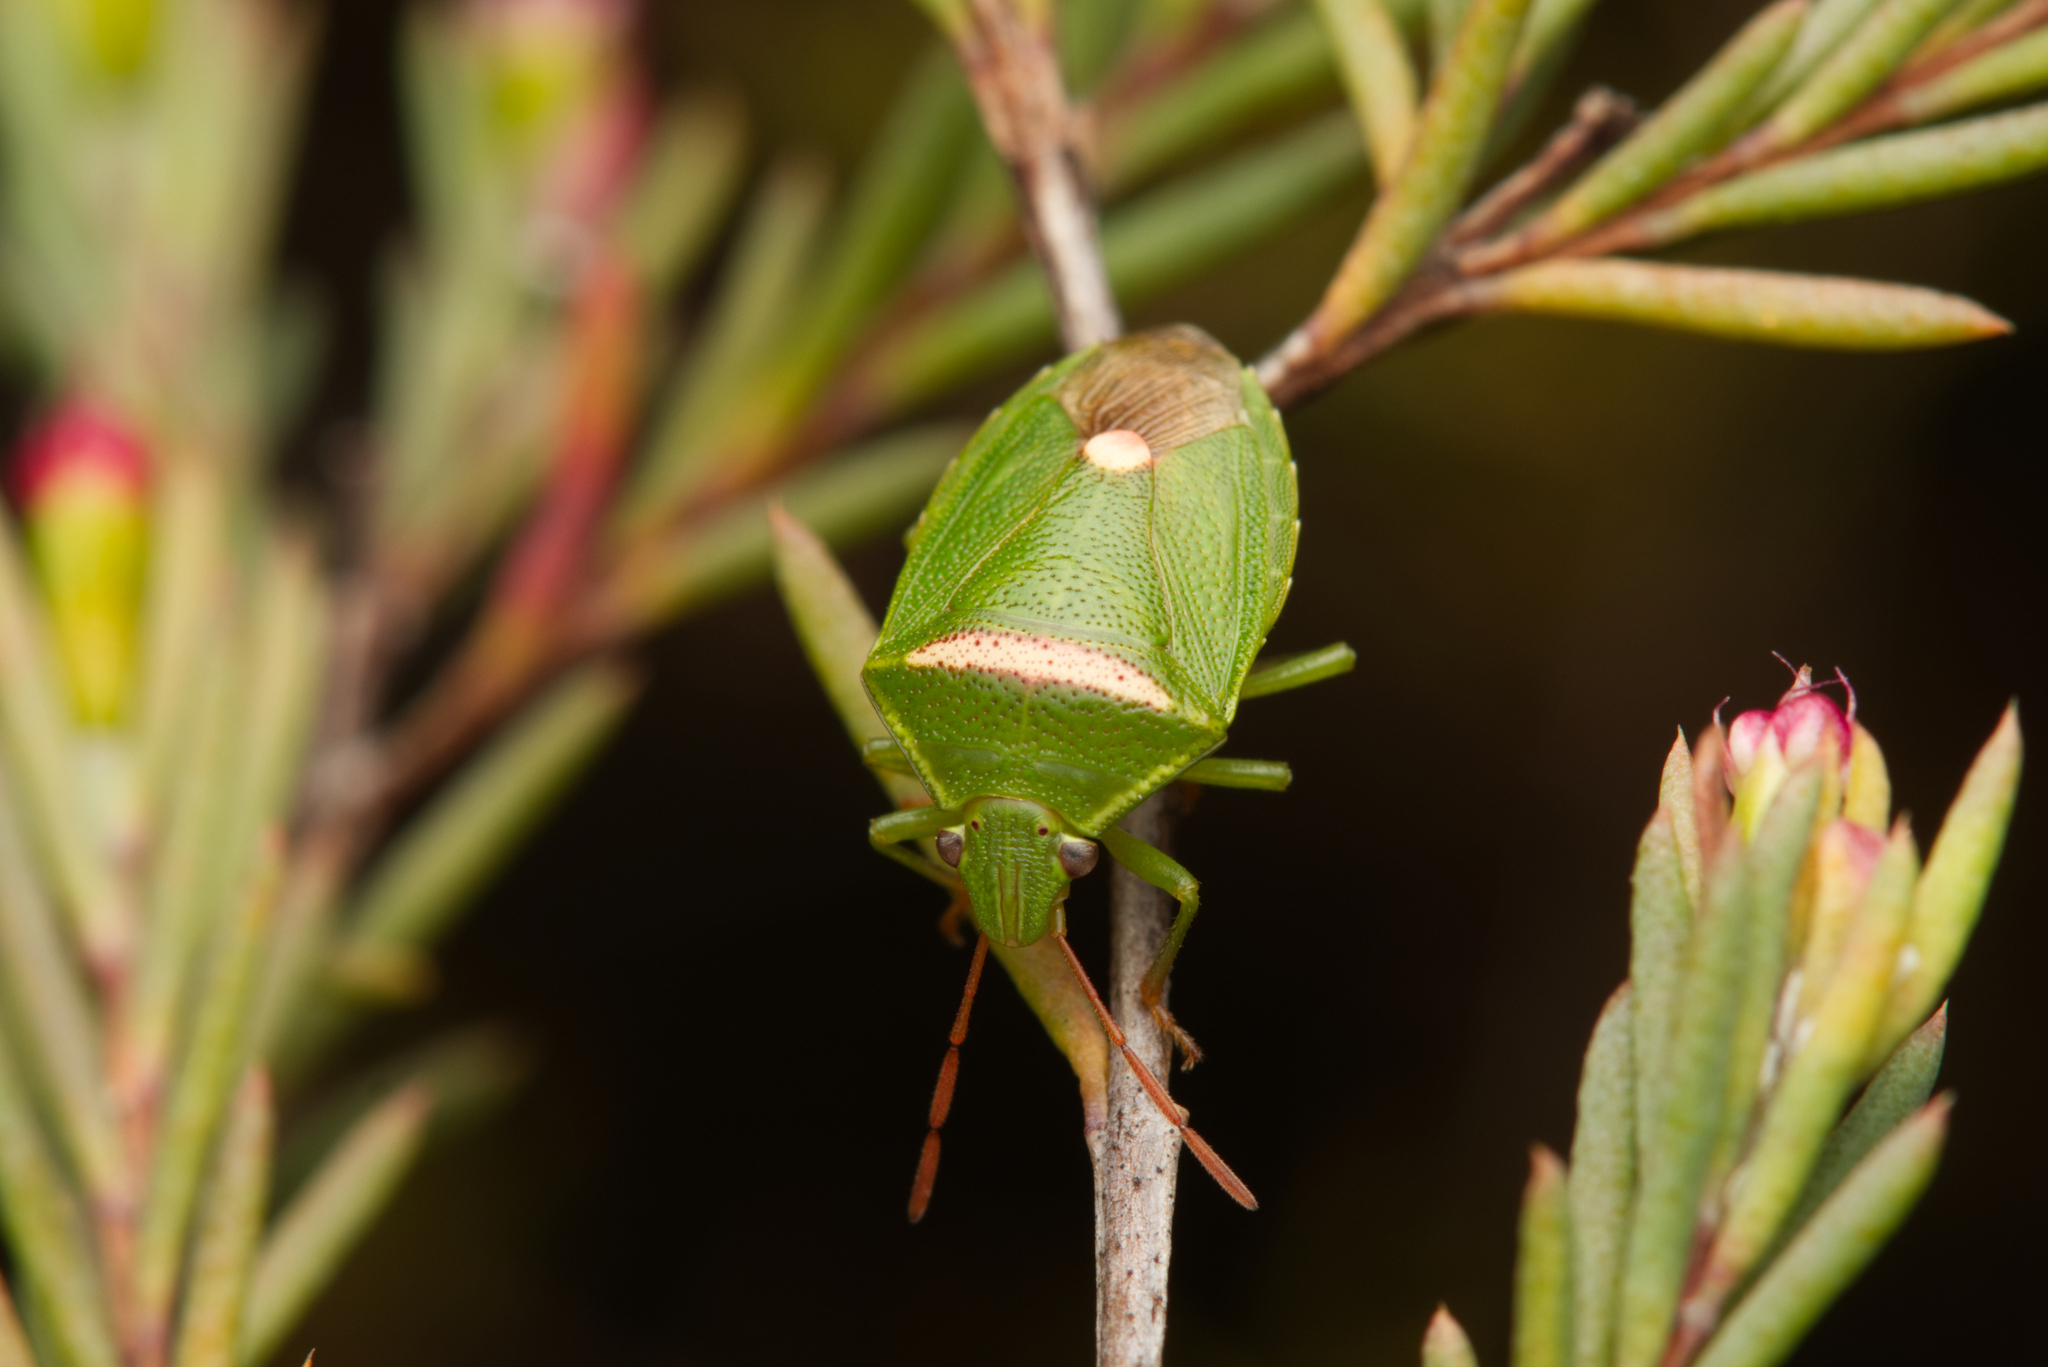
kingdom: Animalia
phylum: Arthropoda
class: Insecta
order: Hemiptera
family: Pentatomidae
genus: Ocirrhoe
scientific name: Ocirrhoe
